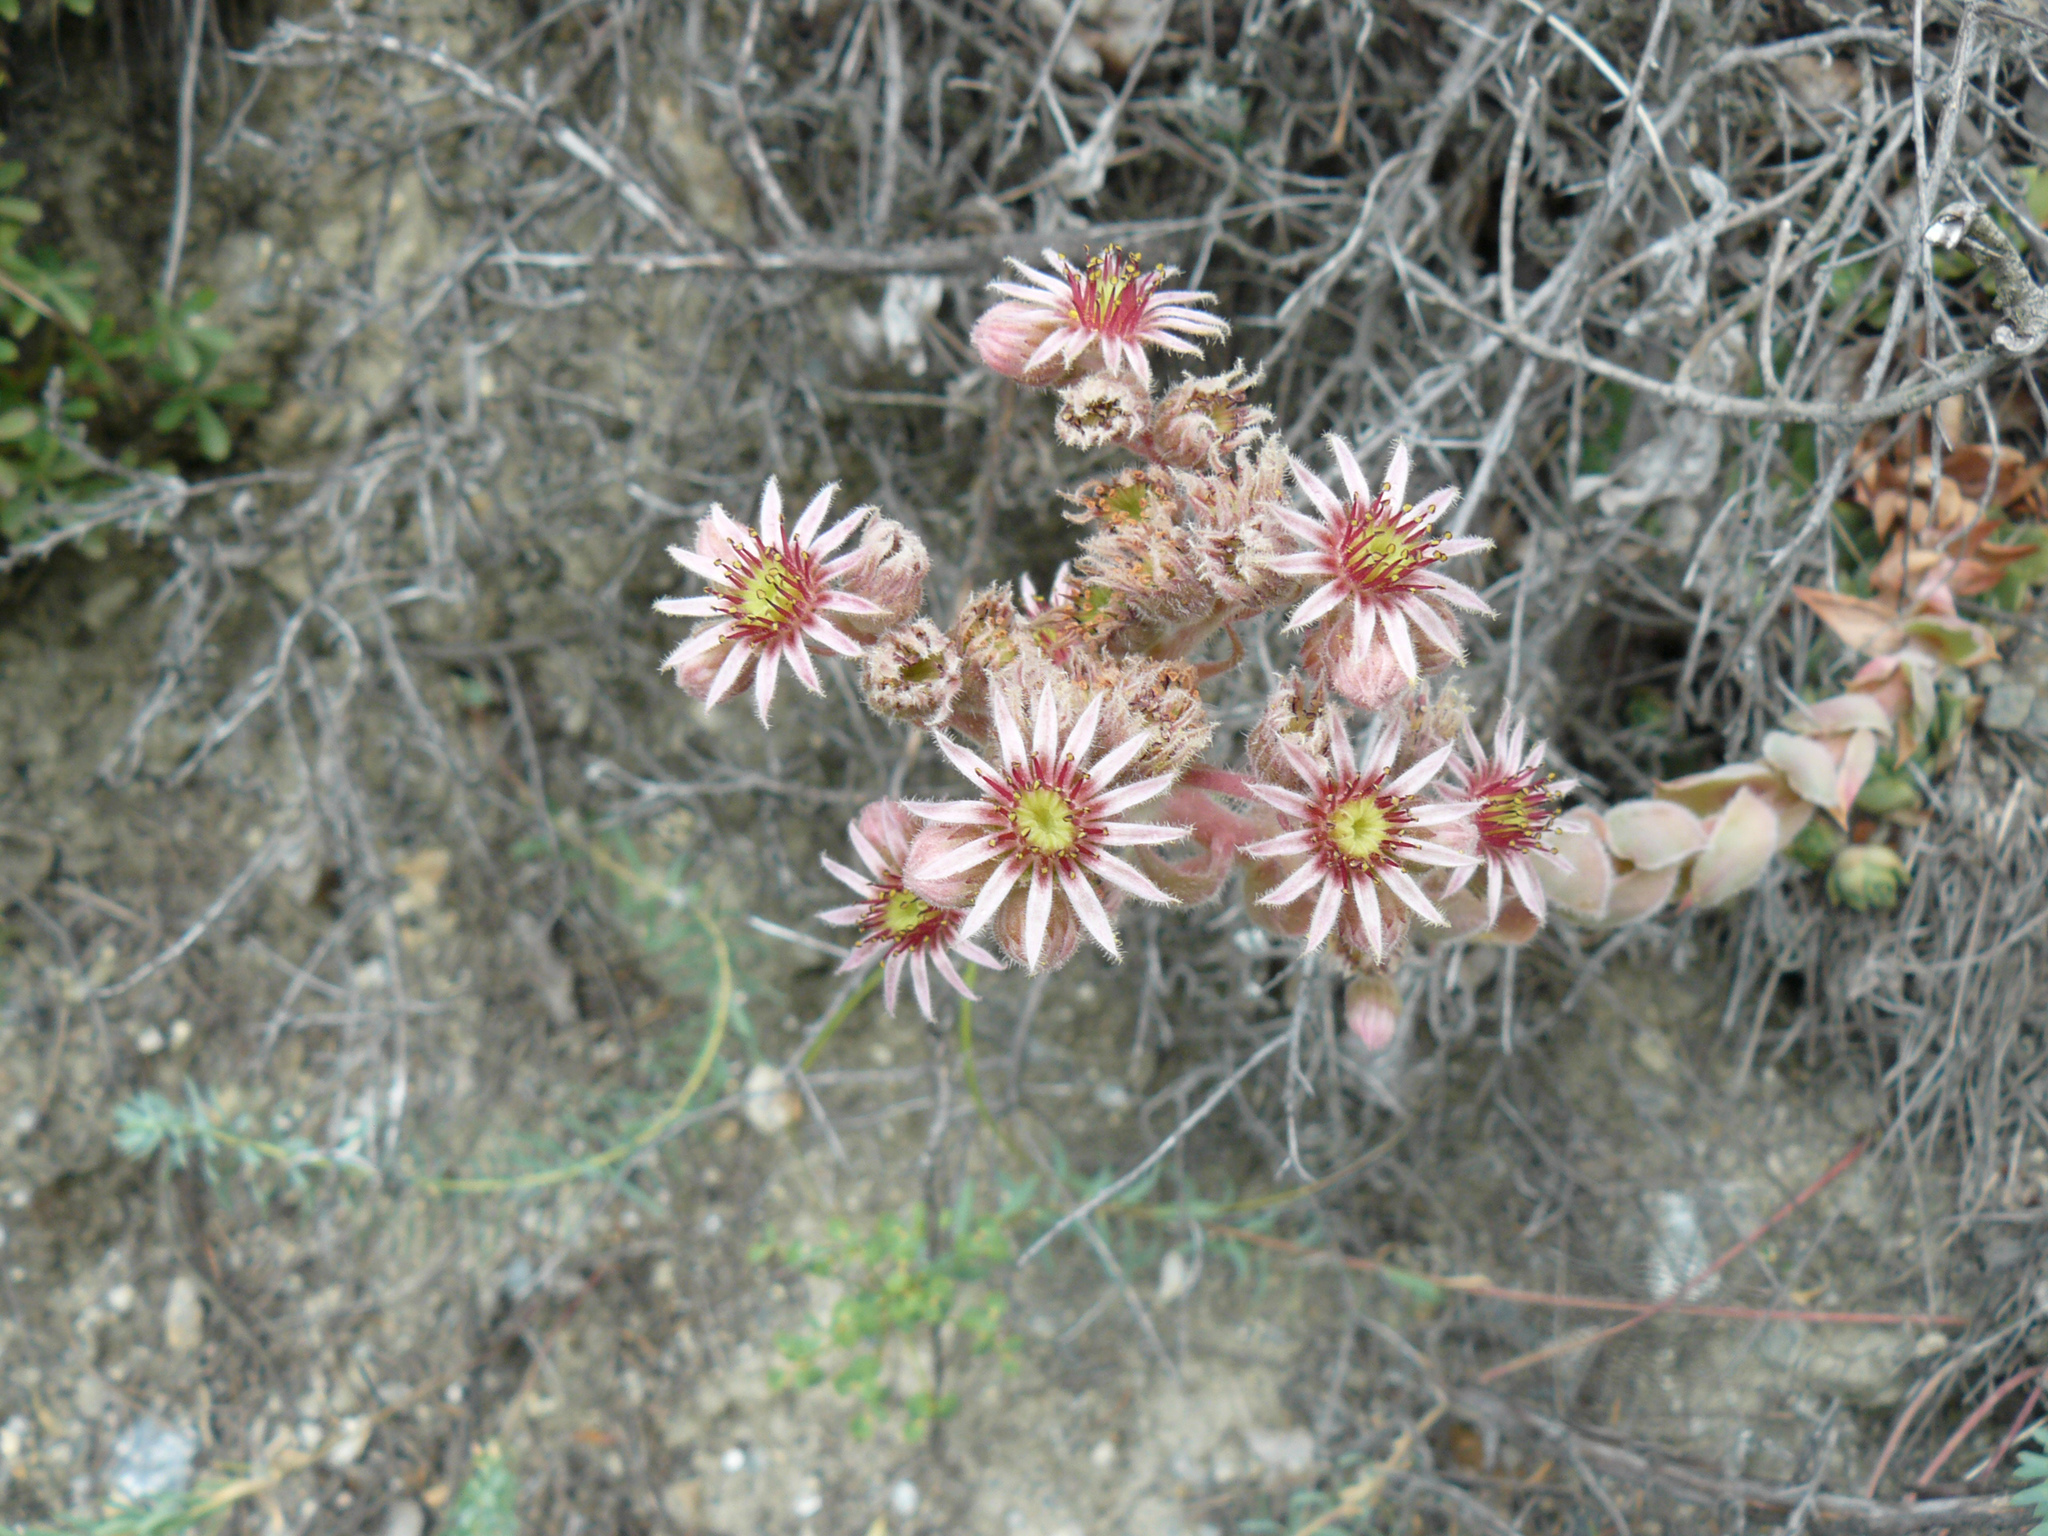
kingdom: Plantae
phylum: Tracheophyta
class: Magnoliopsida
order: Saxifragales
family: Crassulaceae
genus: Sempervivum
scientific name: Sempervivum tectorum
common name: House-leek
